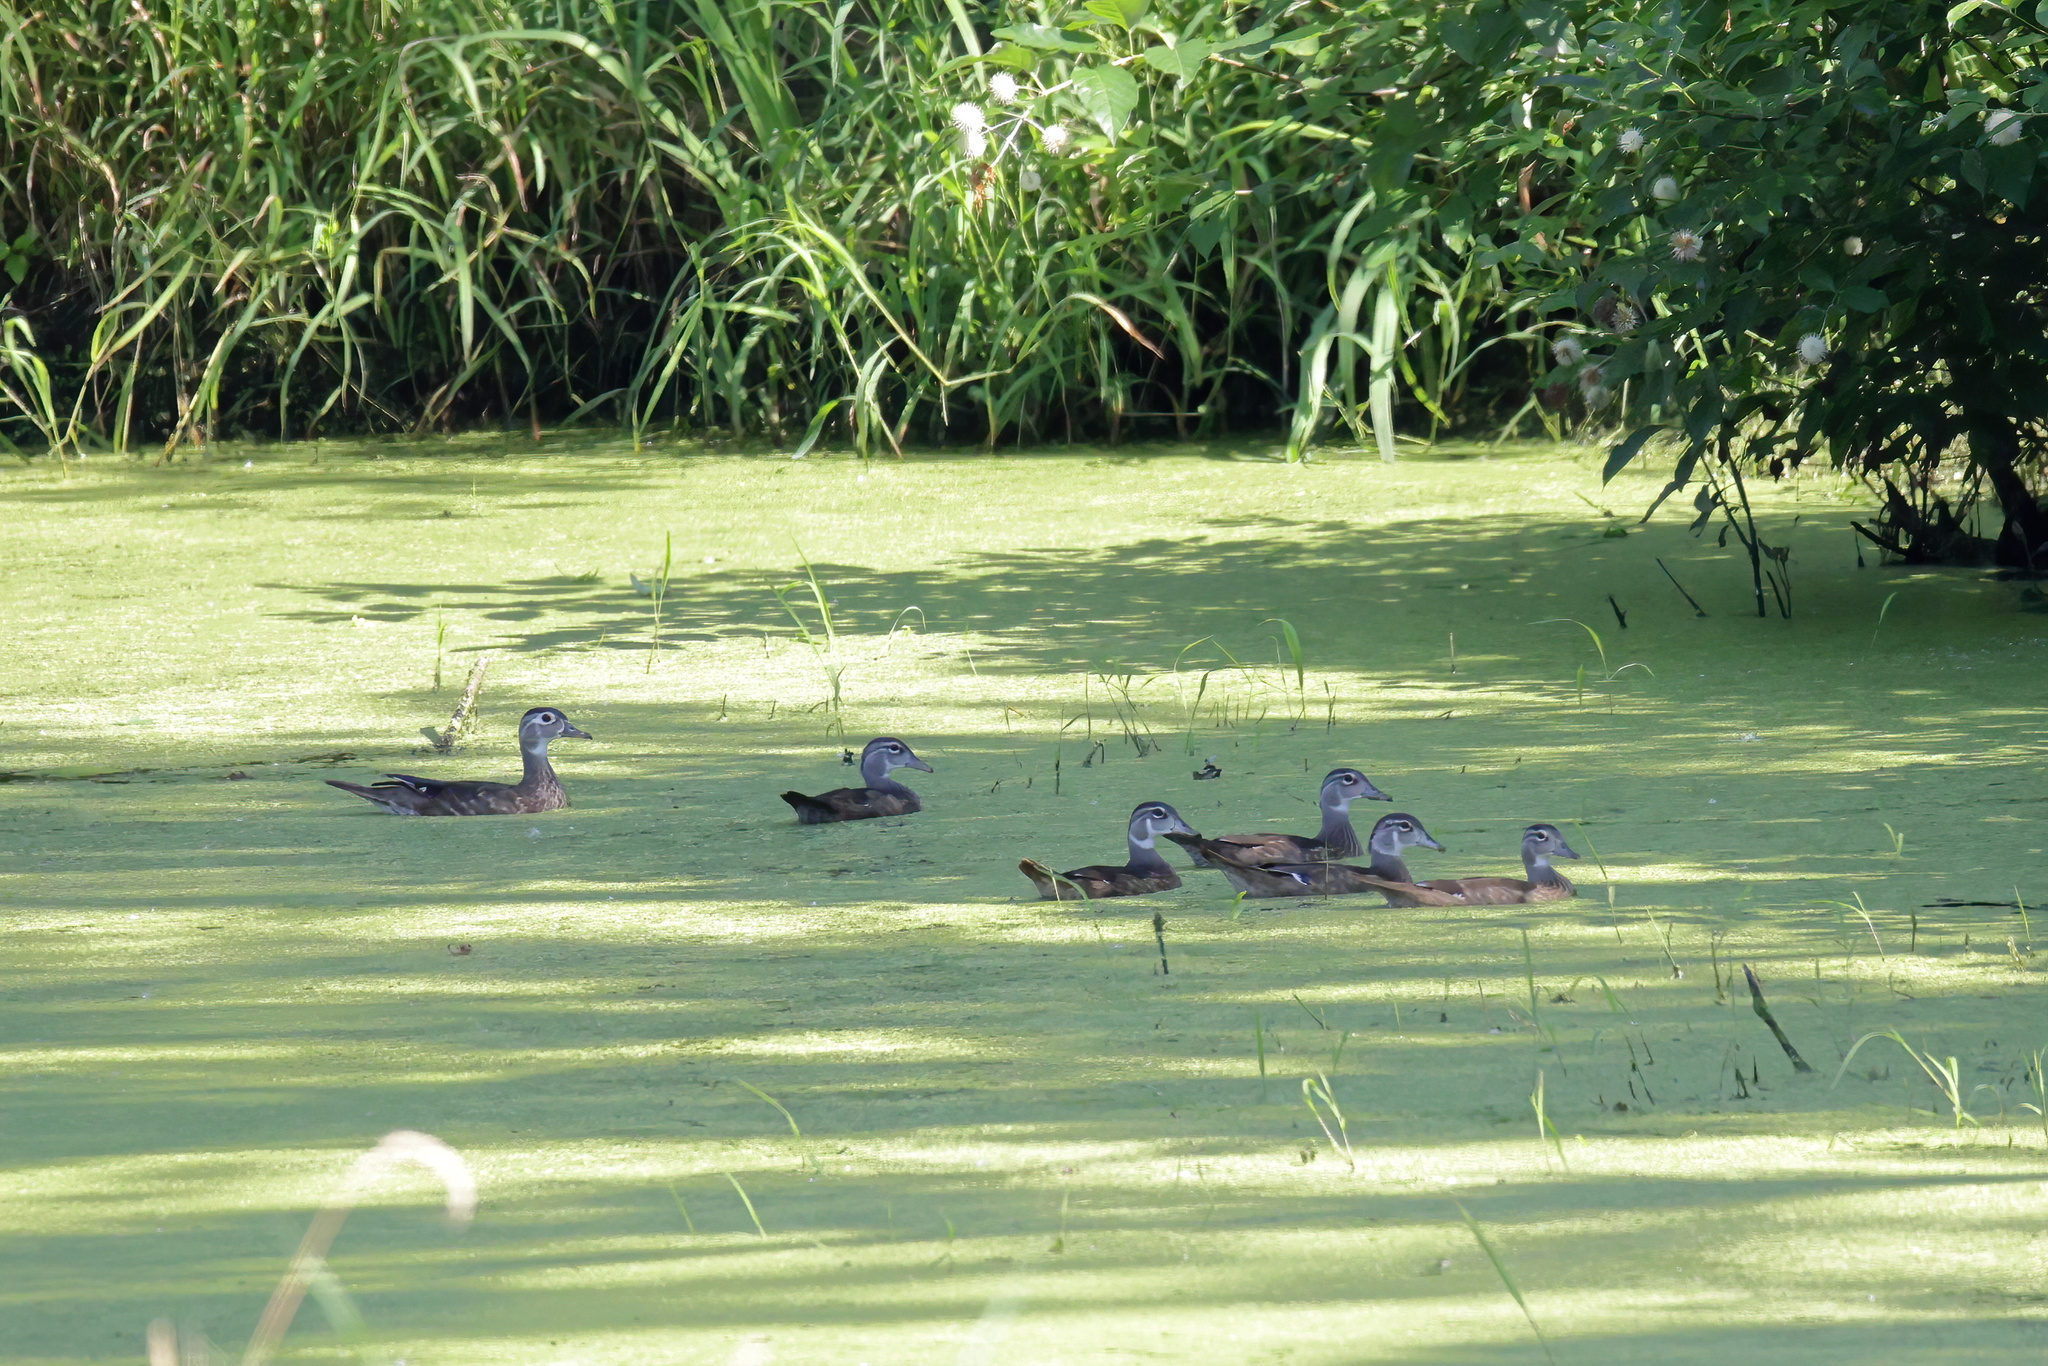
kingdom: Animalia
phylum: Chordata
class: Aves
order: Anseriformes
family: Anatidae
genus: Aix
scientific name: Aix sponsa
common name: Wood duck
